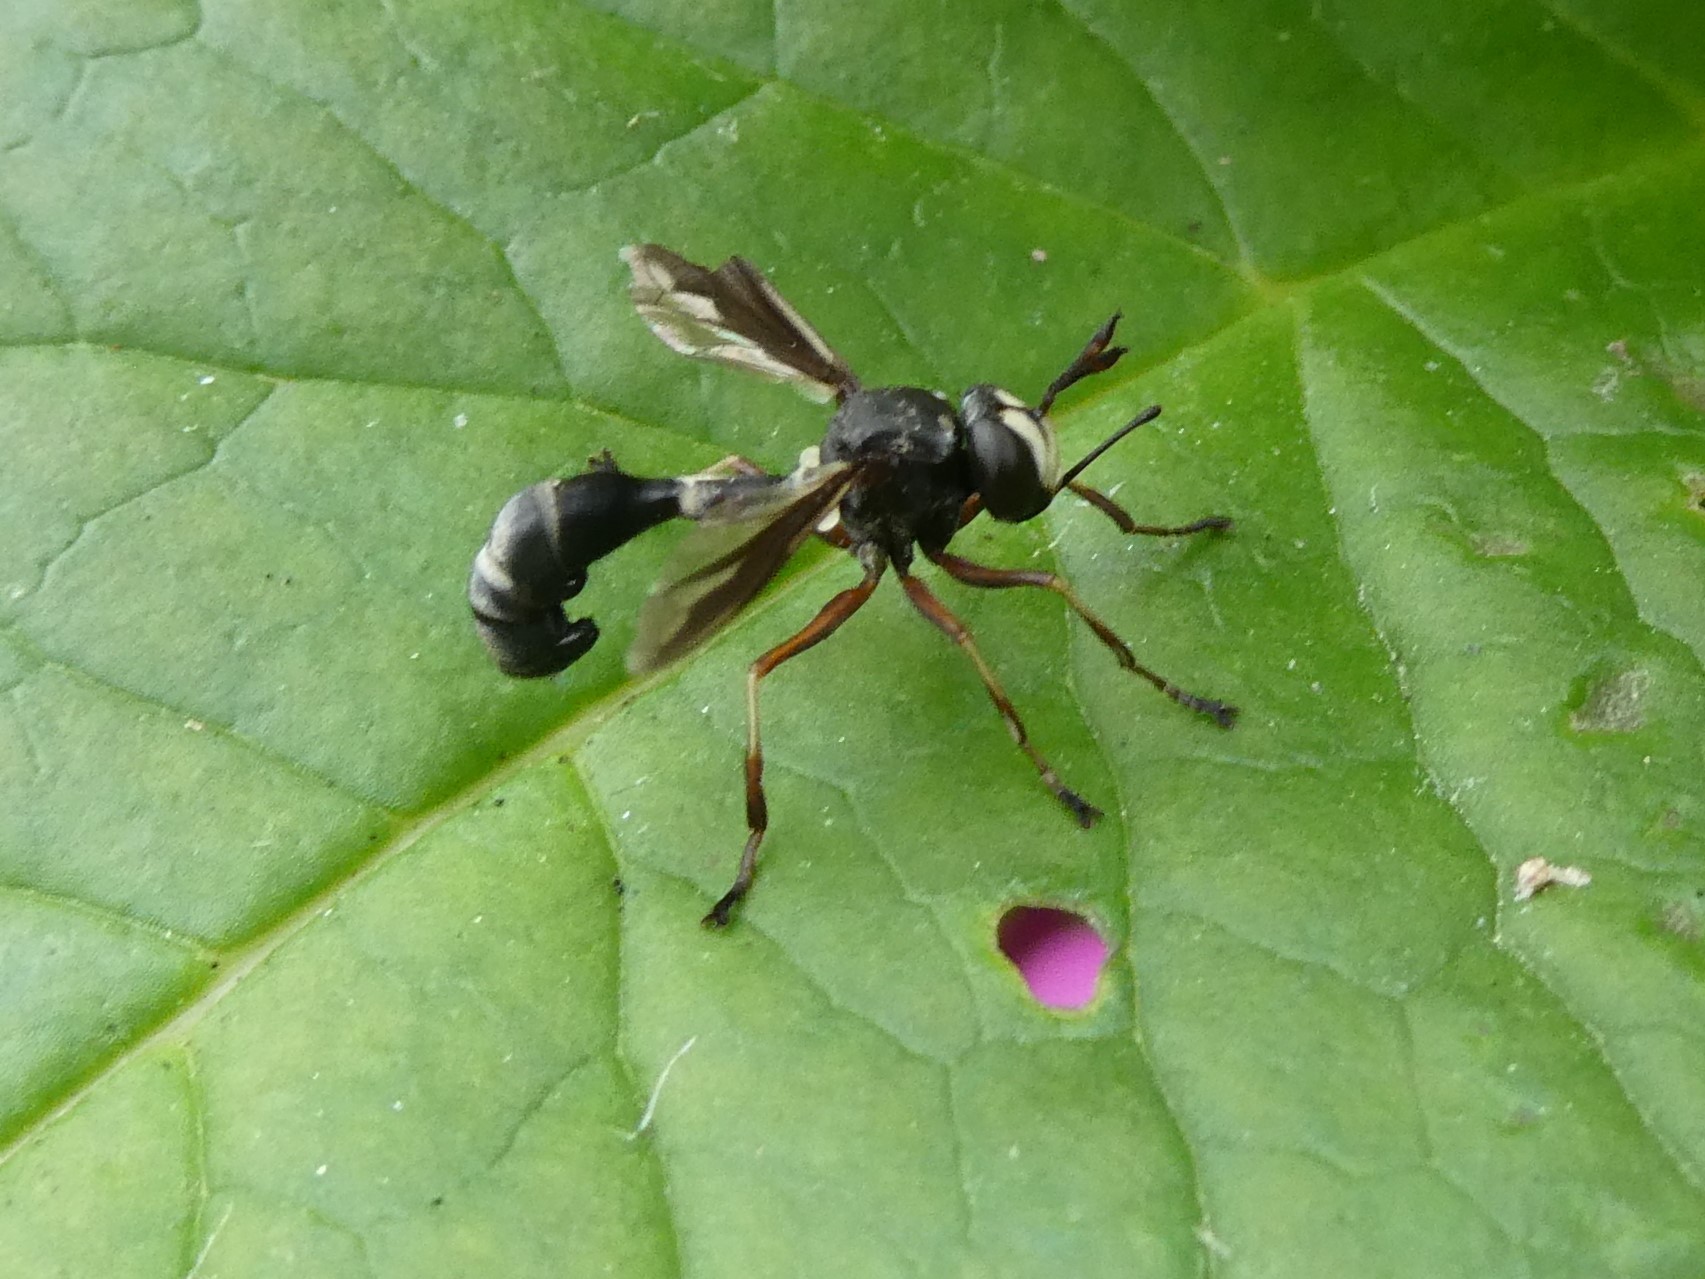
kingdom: Animalia
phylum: Arthropoda
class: Insecta
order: Diptera
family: Conopidae
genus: Physocephala
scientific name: Physocephala furcillata
